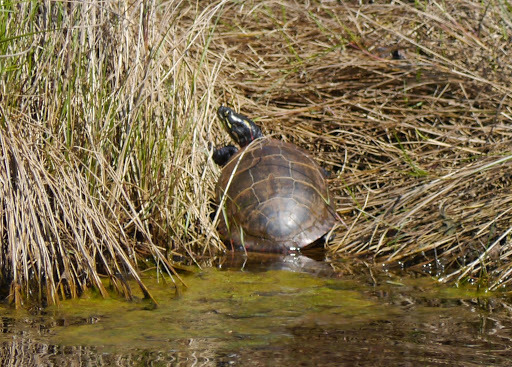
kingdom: Animalia
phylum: Chordata
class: Testudines
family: Emydidae
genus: Chrysemys
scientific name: Chrysemys picta
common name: Painted turtle
